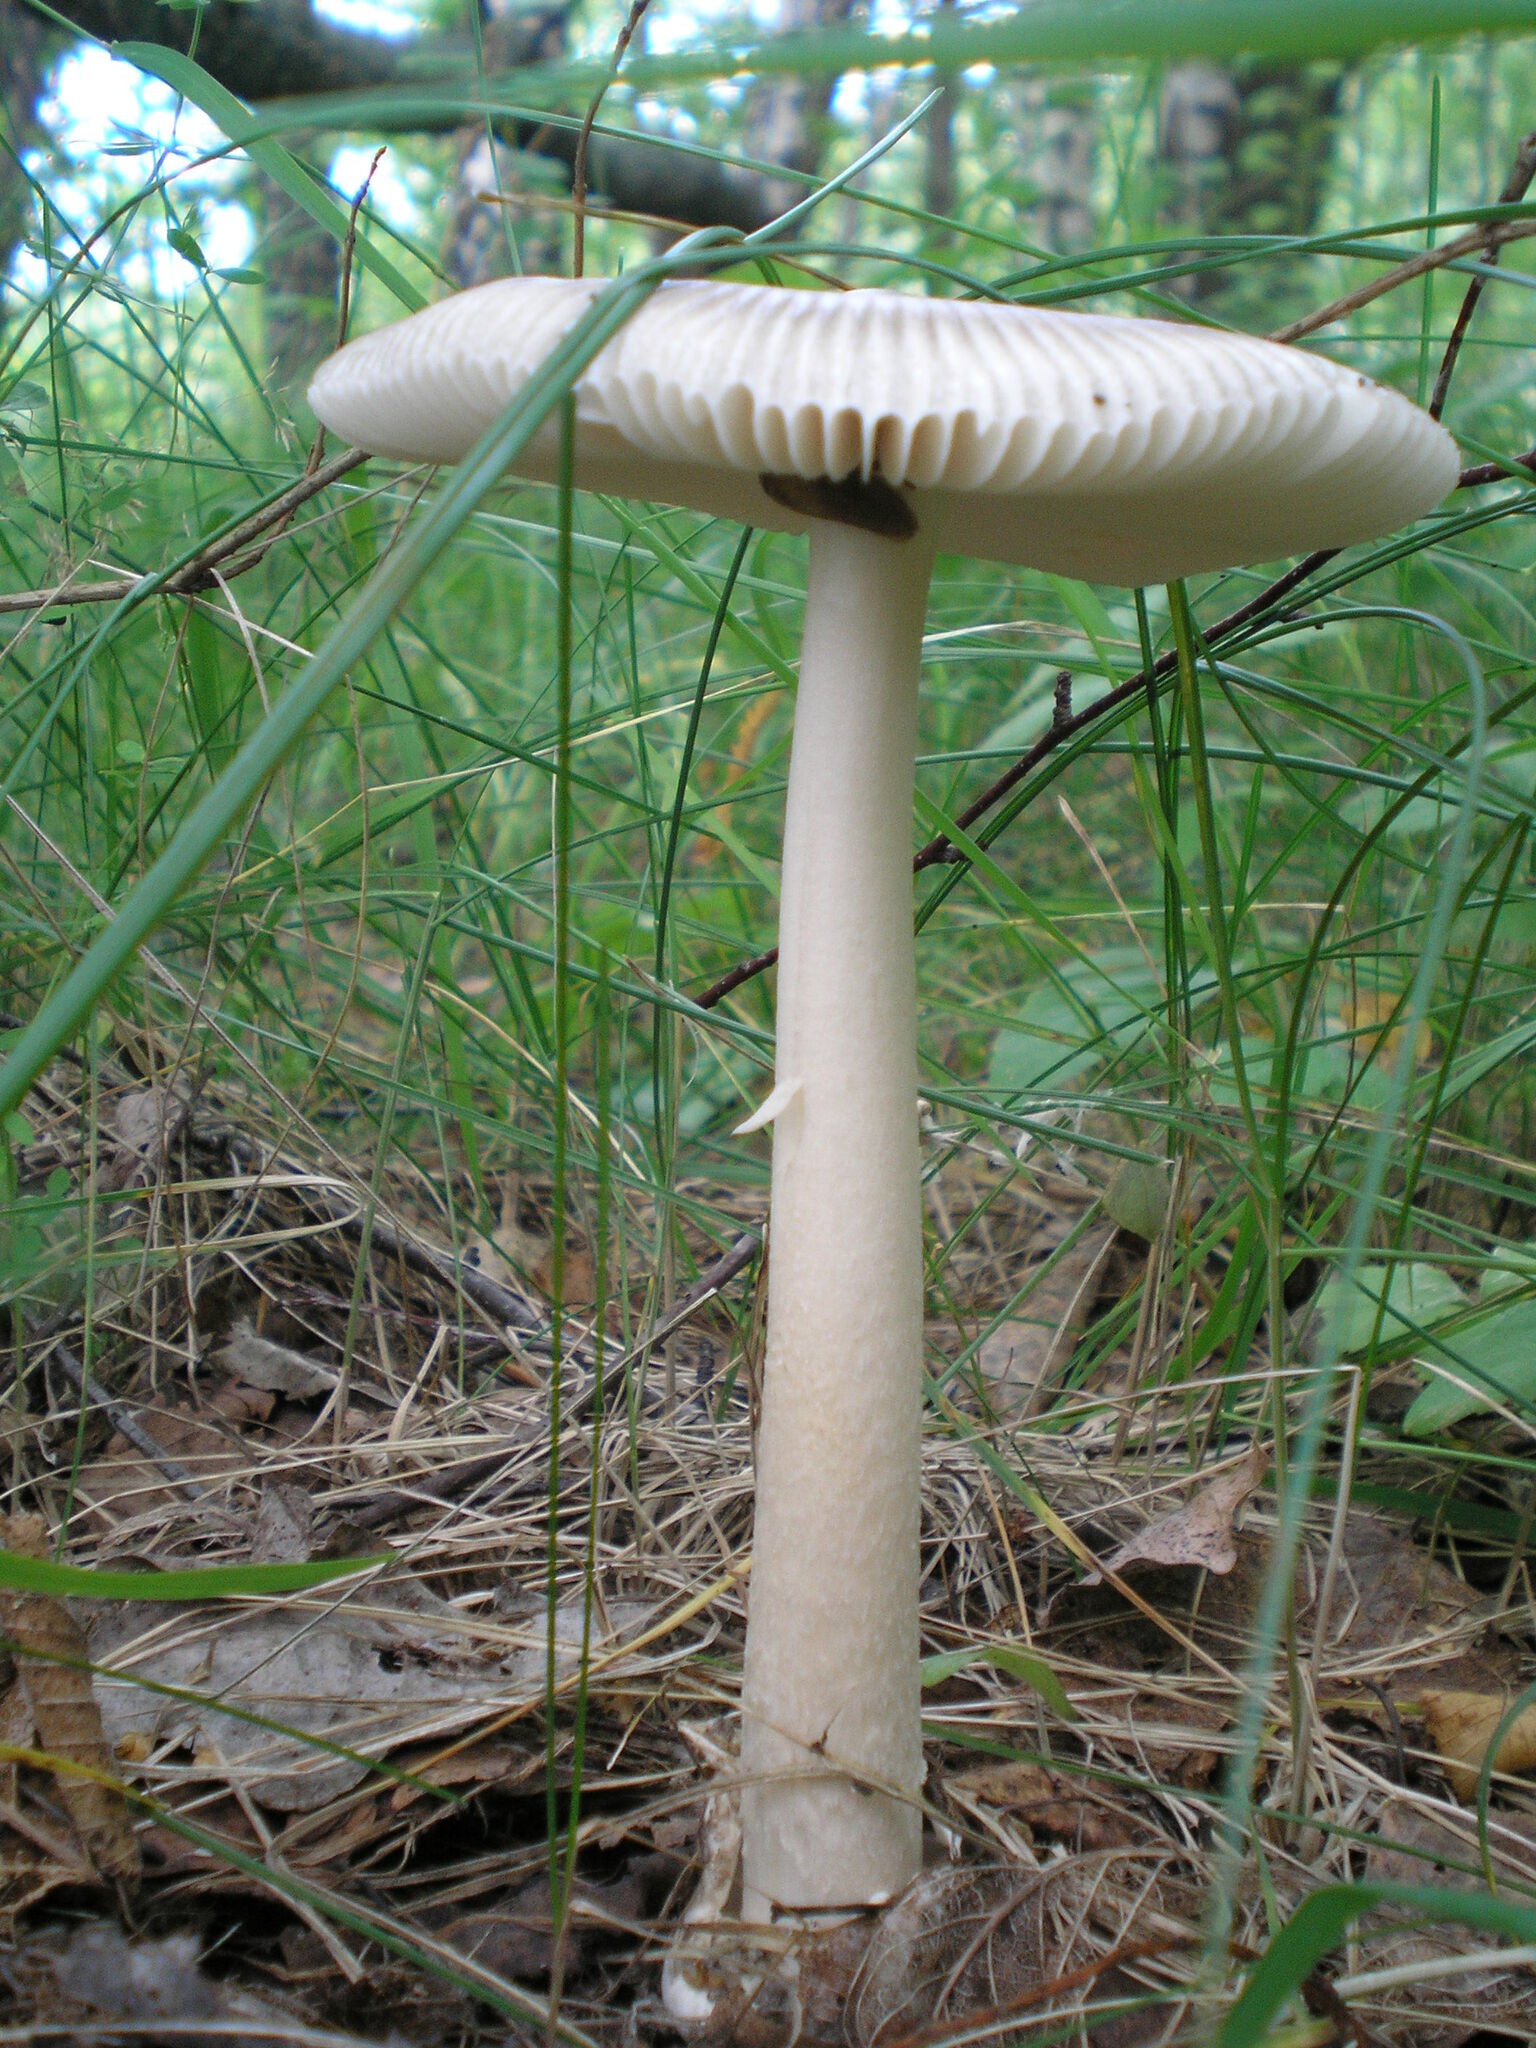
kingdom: Fungi
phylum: Basidiomycota
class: Agaricomycetes
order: Agaricales
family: Amanitaceae
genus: Amanita
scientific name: Amanita
